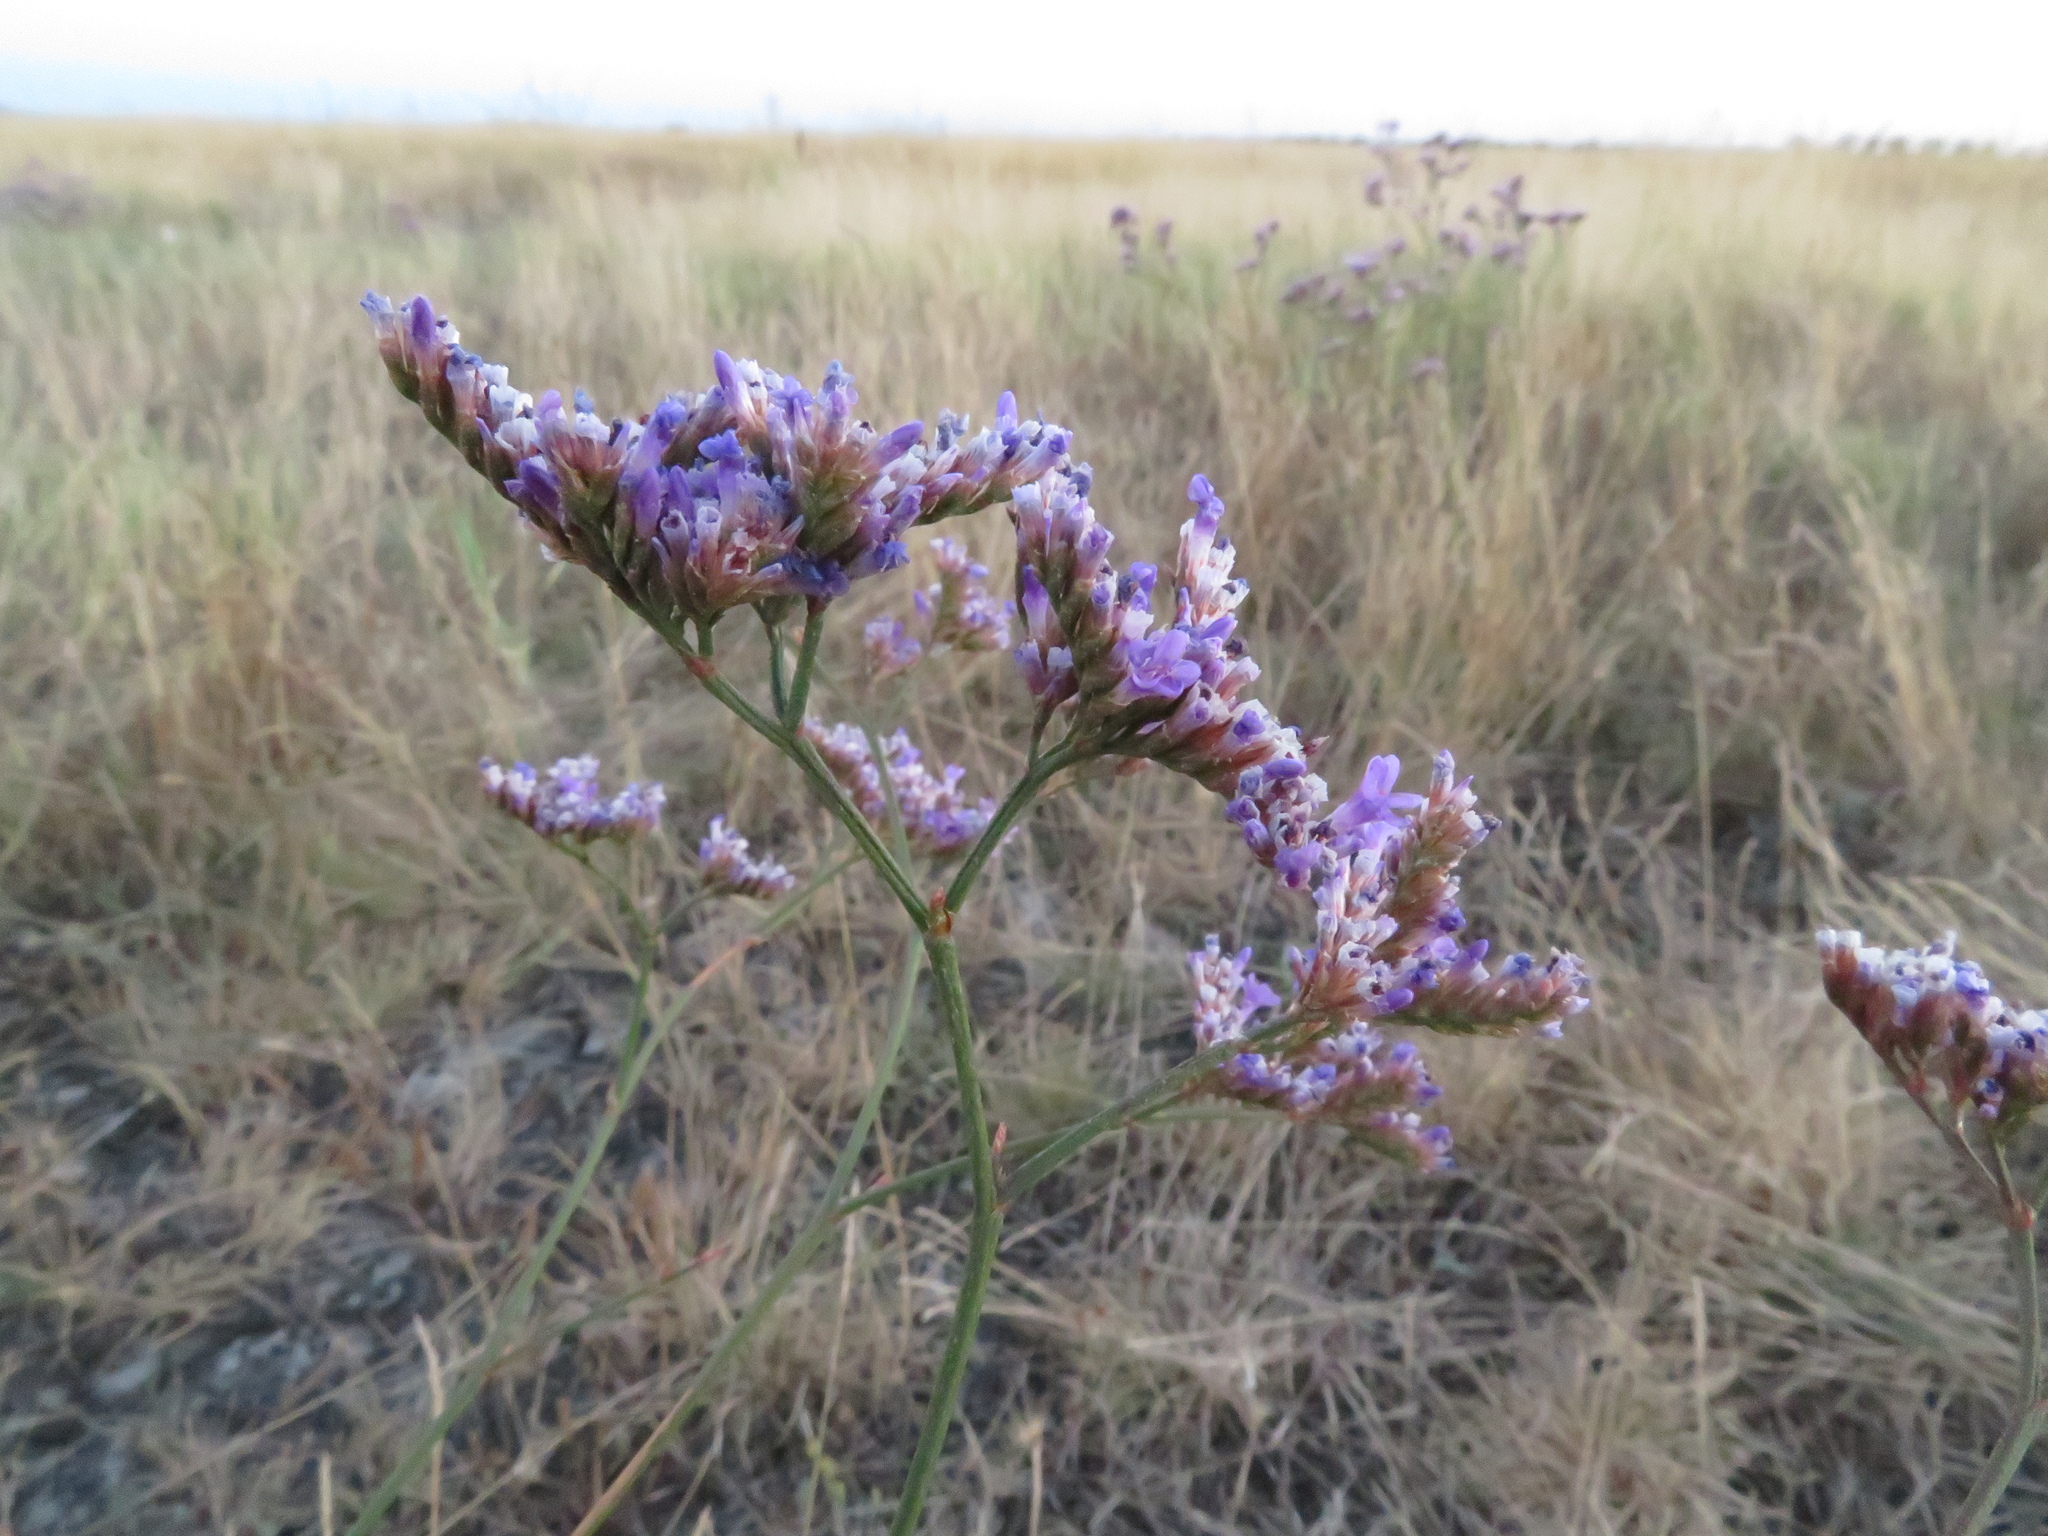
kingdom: Plantae
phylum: Tracheophyta
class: Magnoliopsida
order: Caryophyllales
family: Plumbaginaceae
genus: Limonium
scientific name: Limonium gmelini
